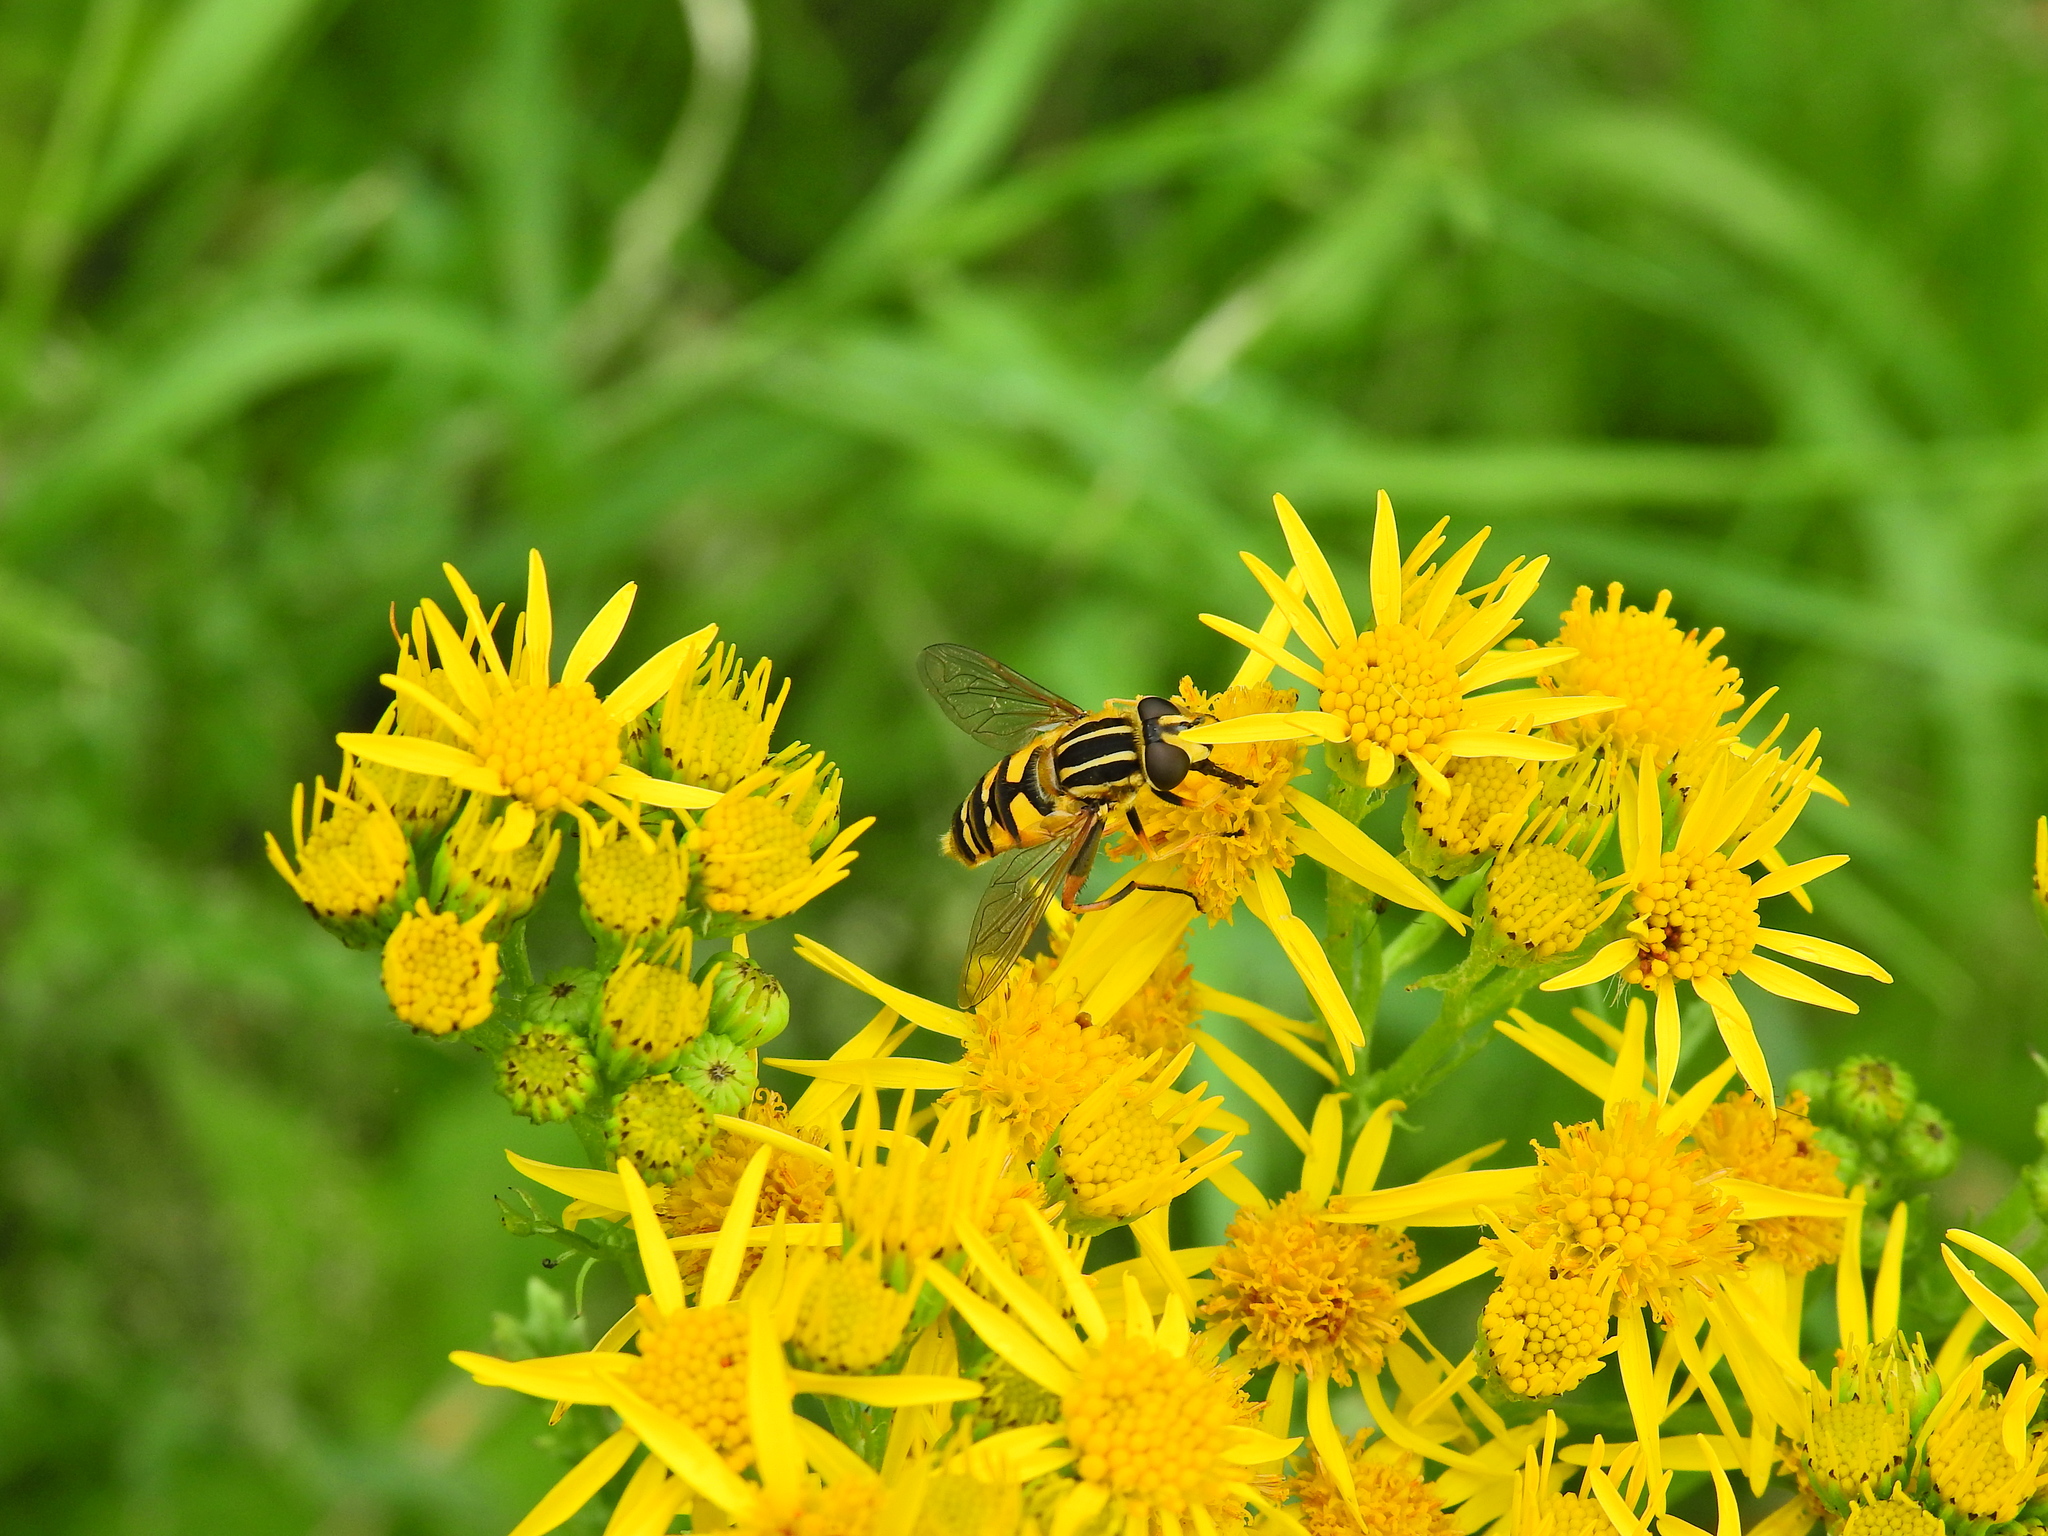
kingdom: Animalia
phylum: Arthropoda
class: Insecta
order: Diptera
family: Syrphidae
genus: Helophilus
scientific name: Helophilus pendulus
